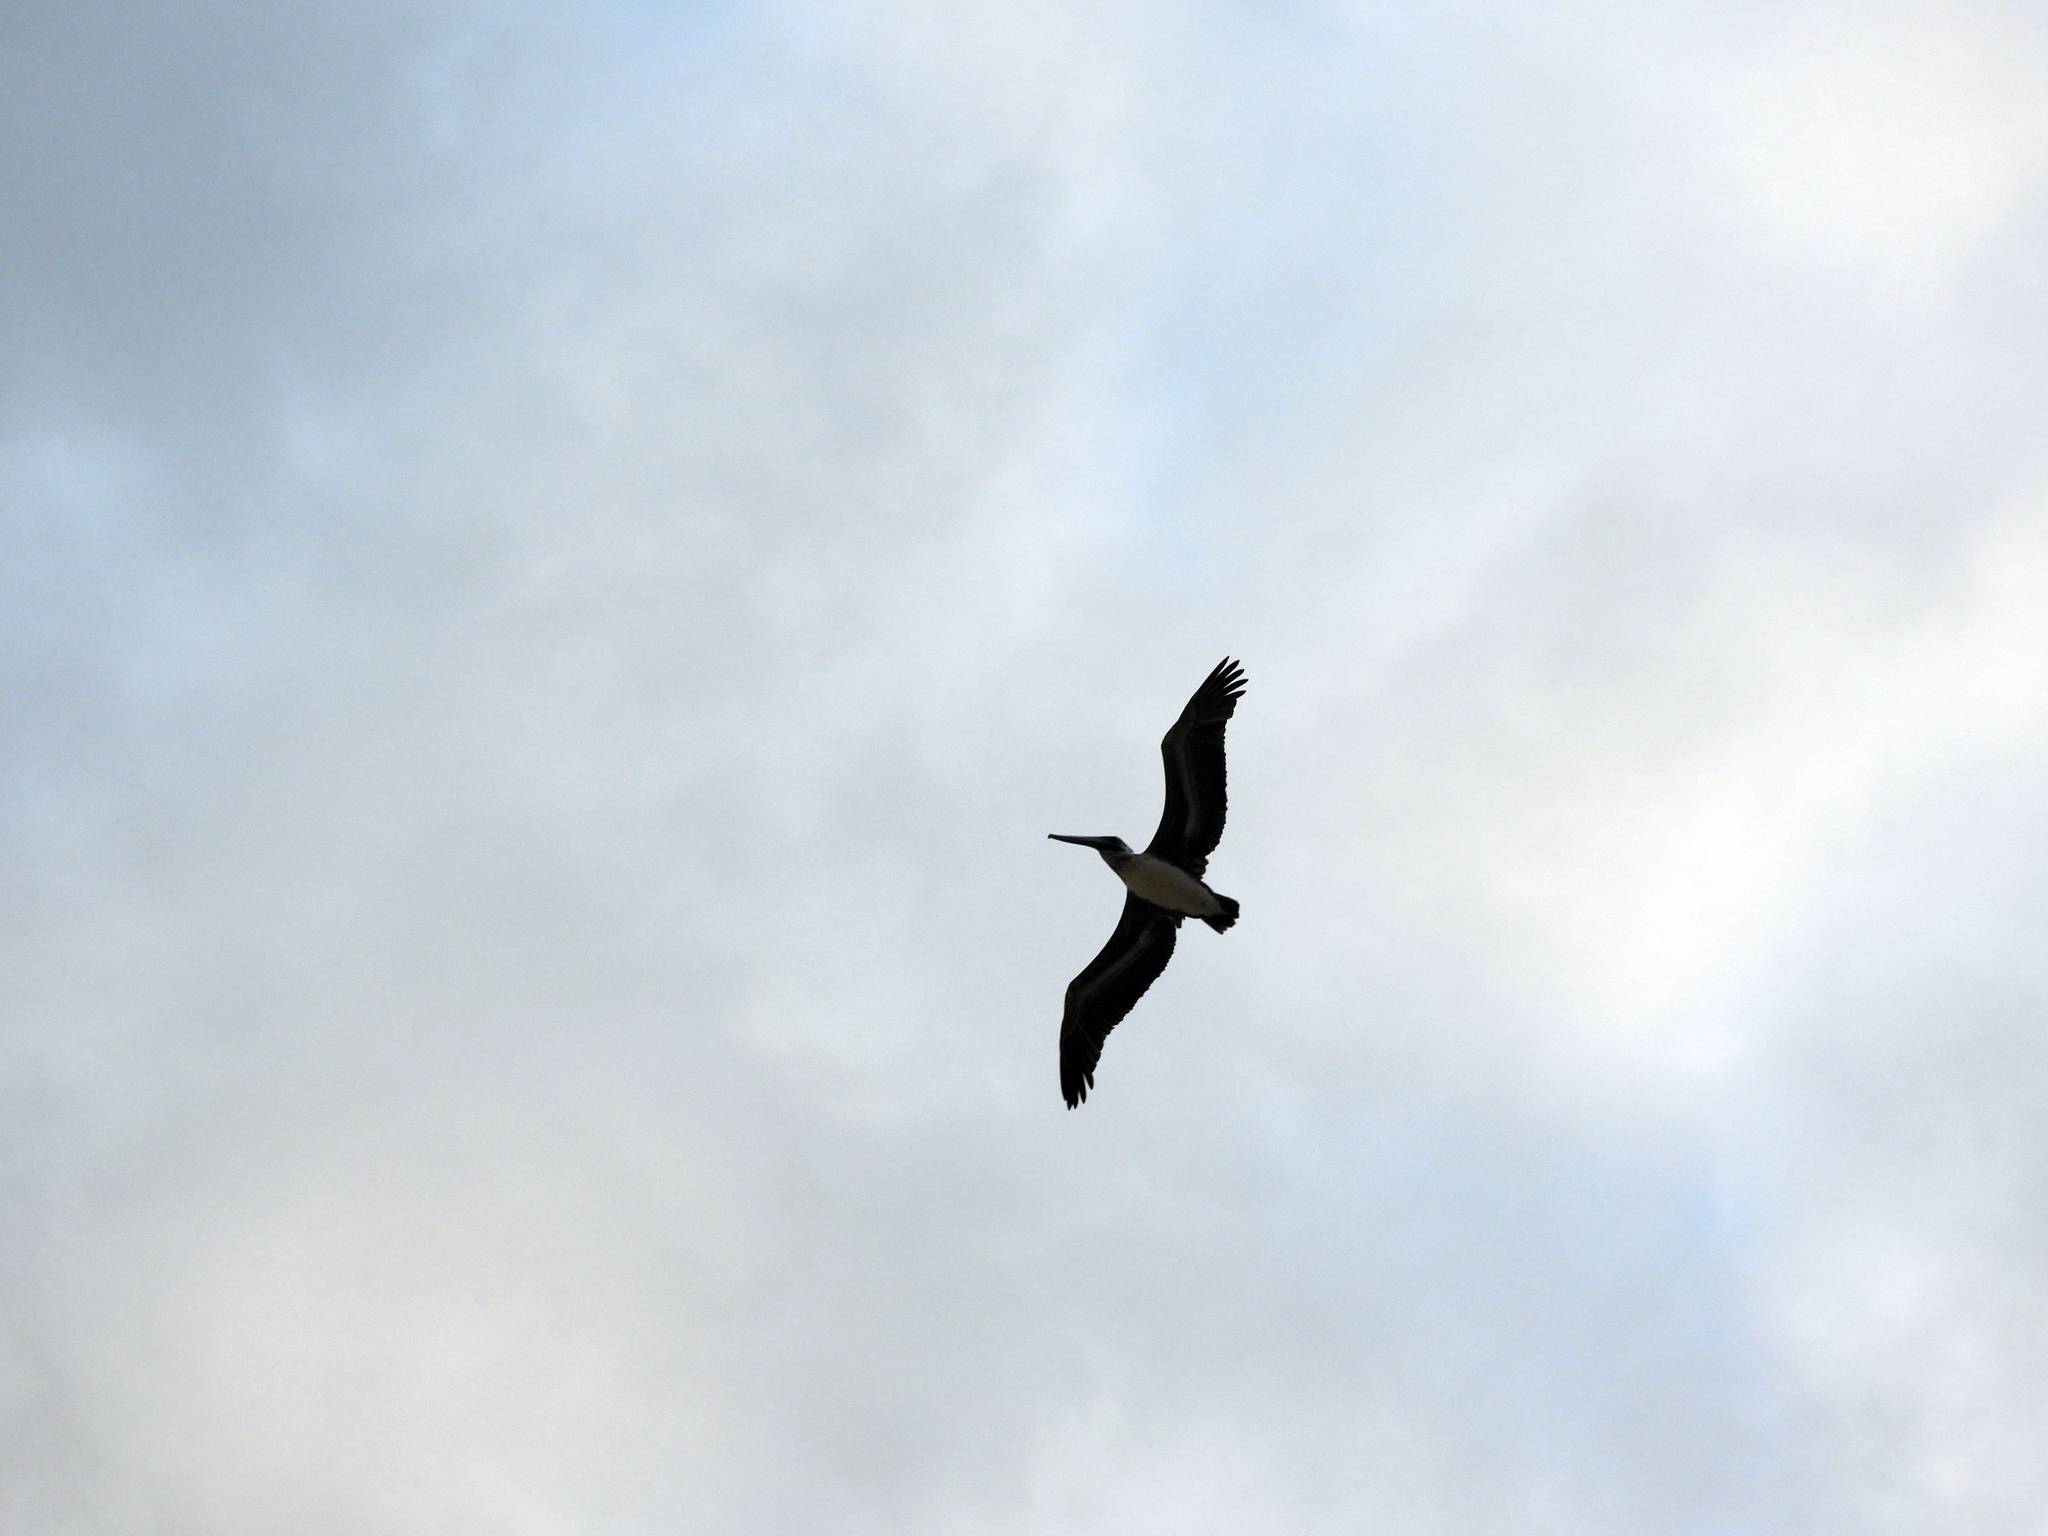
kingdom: Animalia
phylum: Chordata
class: Aves
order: Pelecaniformes
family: Pelecanidae
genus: Pelecanus
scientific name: Pelecanus occidentalis
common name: Brown pelican
